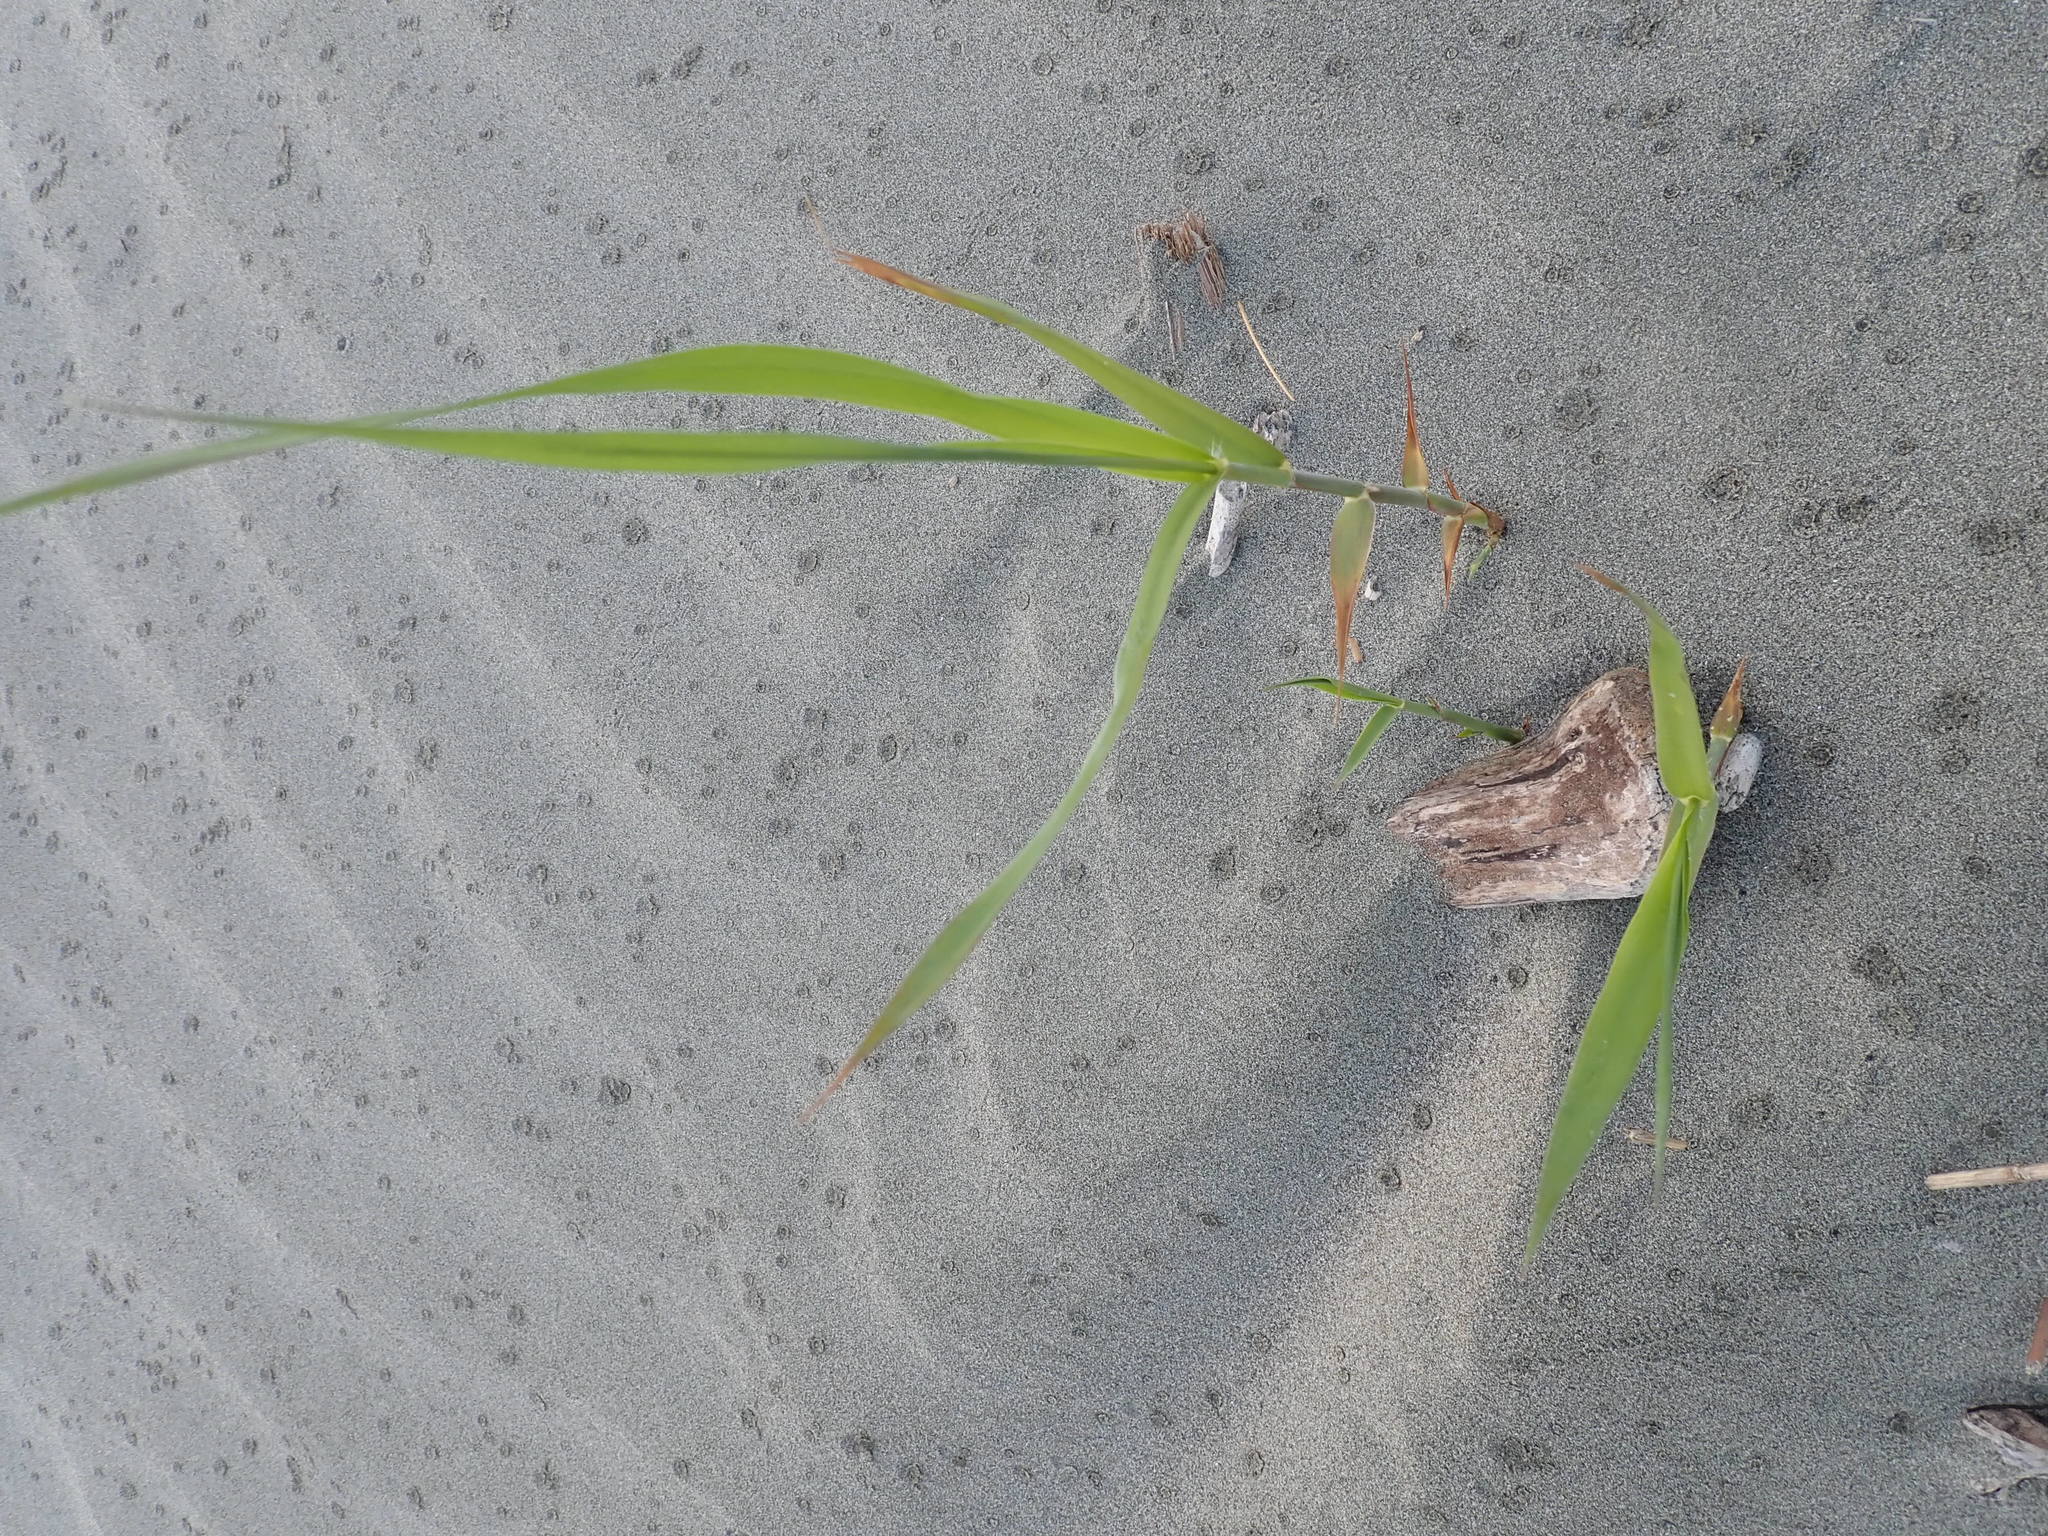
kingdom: Plantae
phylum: Tracheophyta
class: Liliopsida
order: Poales
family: Poaceae
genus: Phragmites
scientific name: Phragmites karka
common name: Tropical reed
